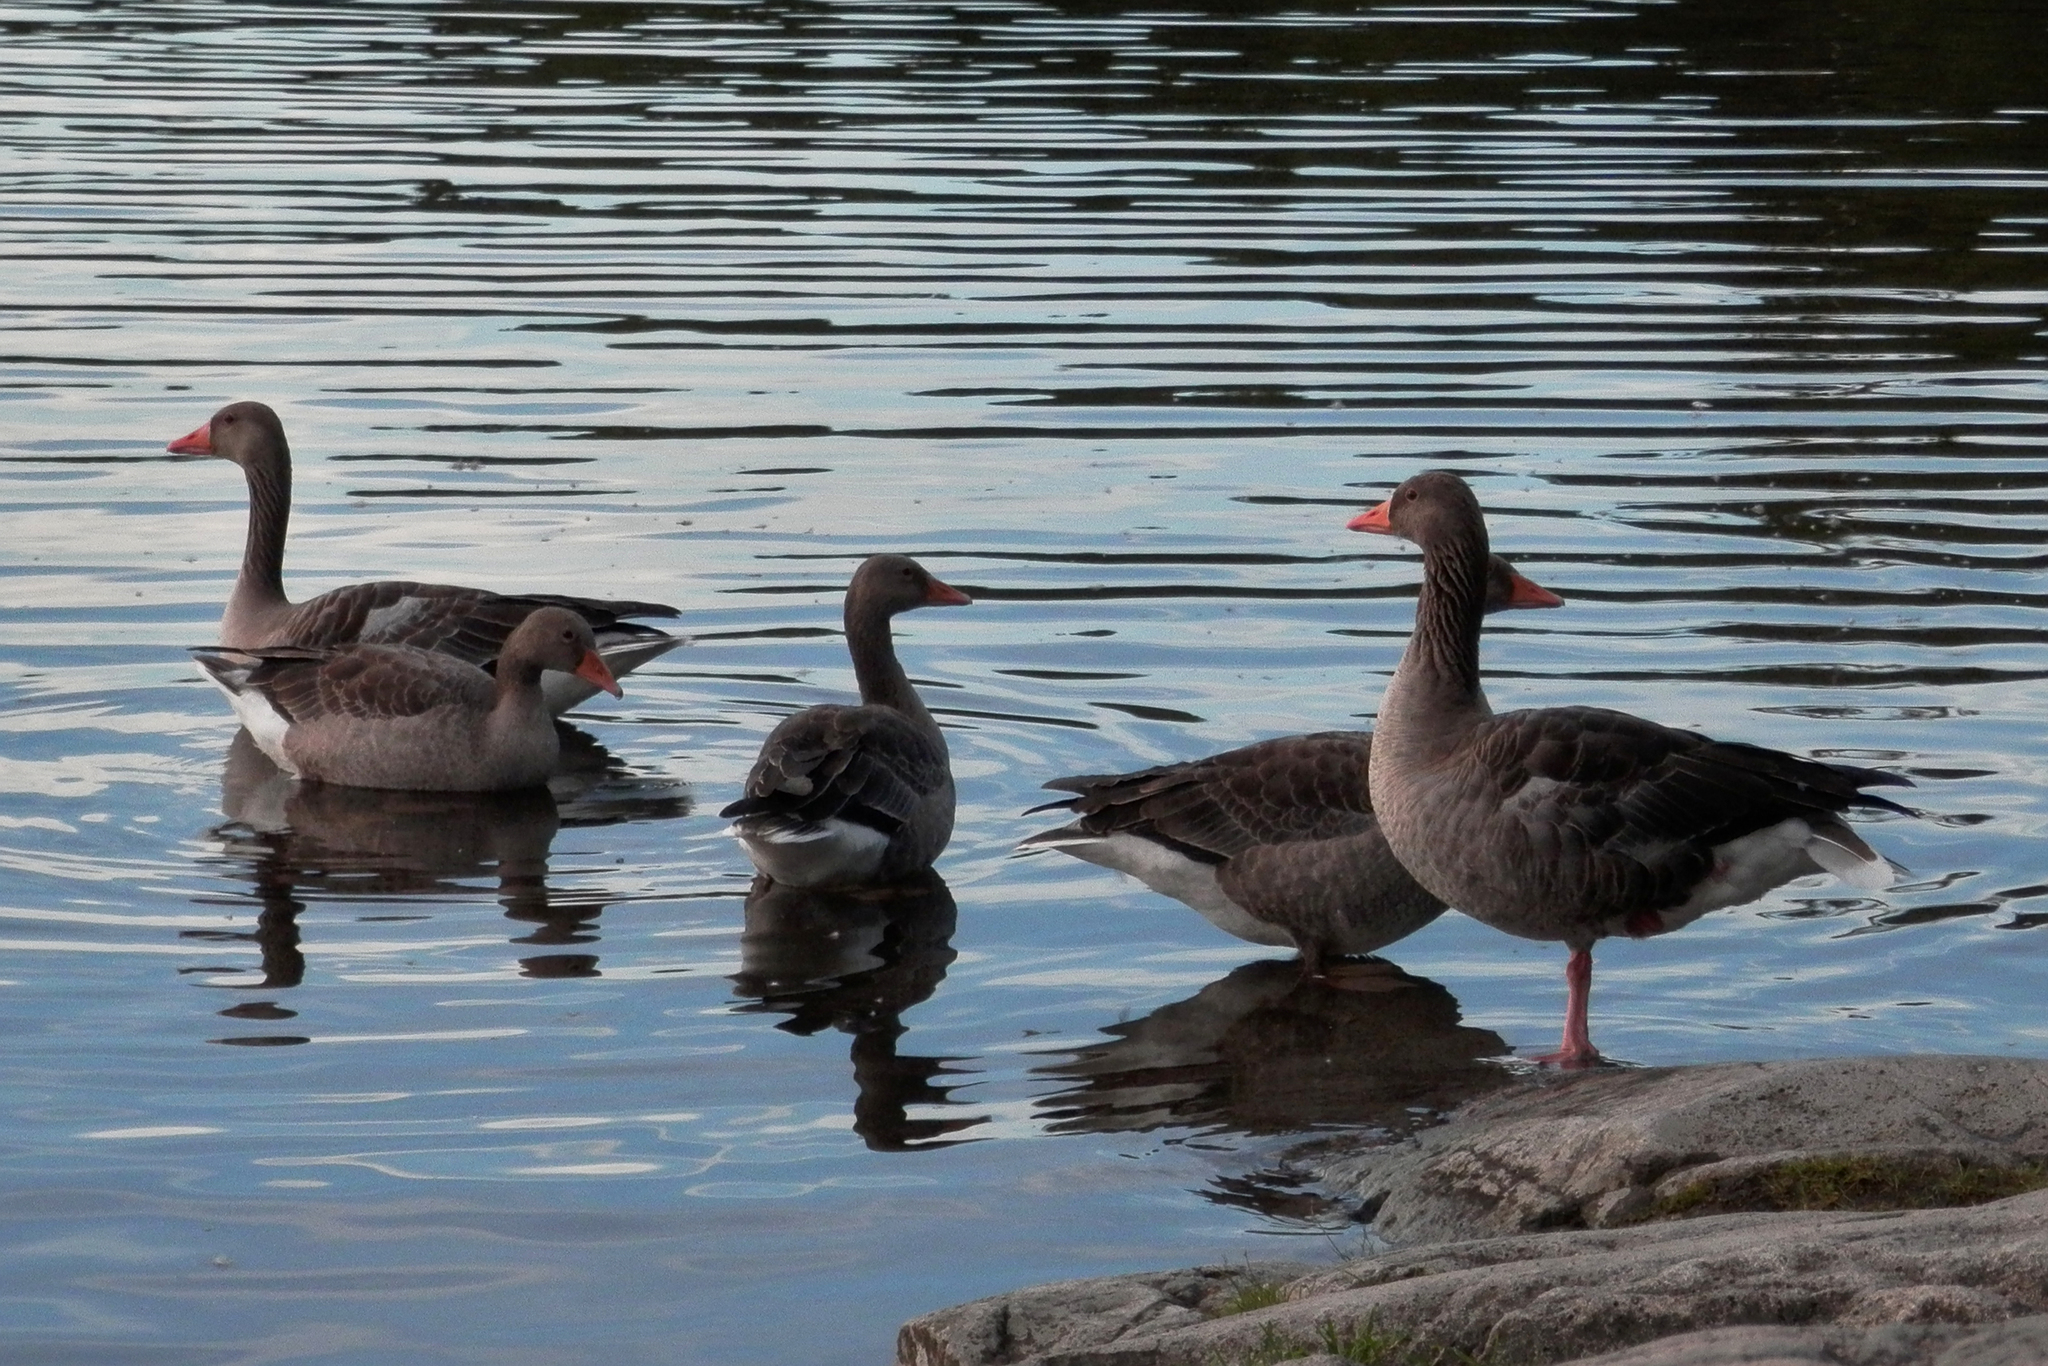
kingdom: Animalia
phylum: Chordata
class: Aves
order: Anseriformes
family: Anatidae
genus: Anser
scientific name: Anser anser
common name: Greylag goose
